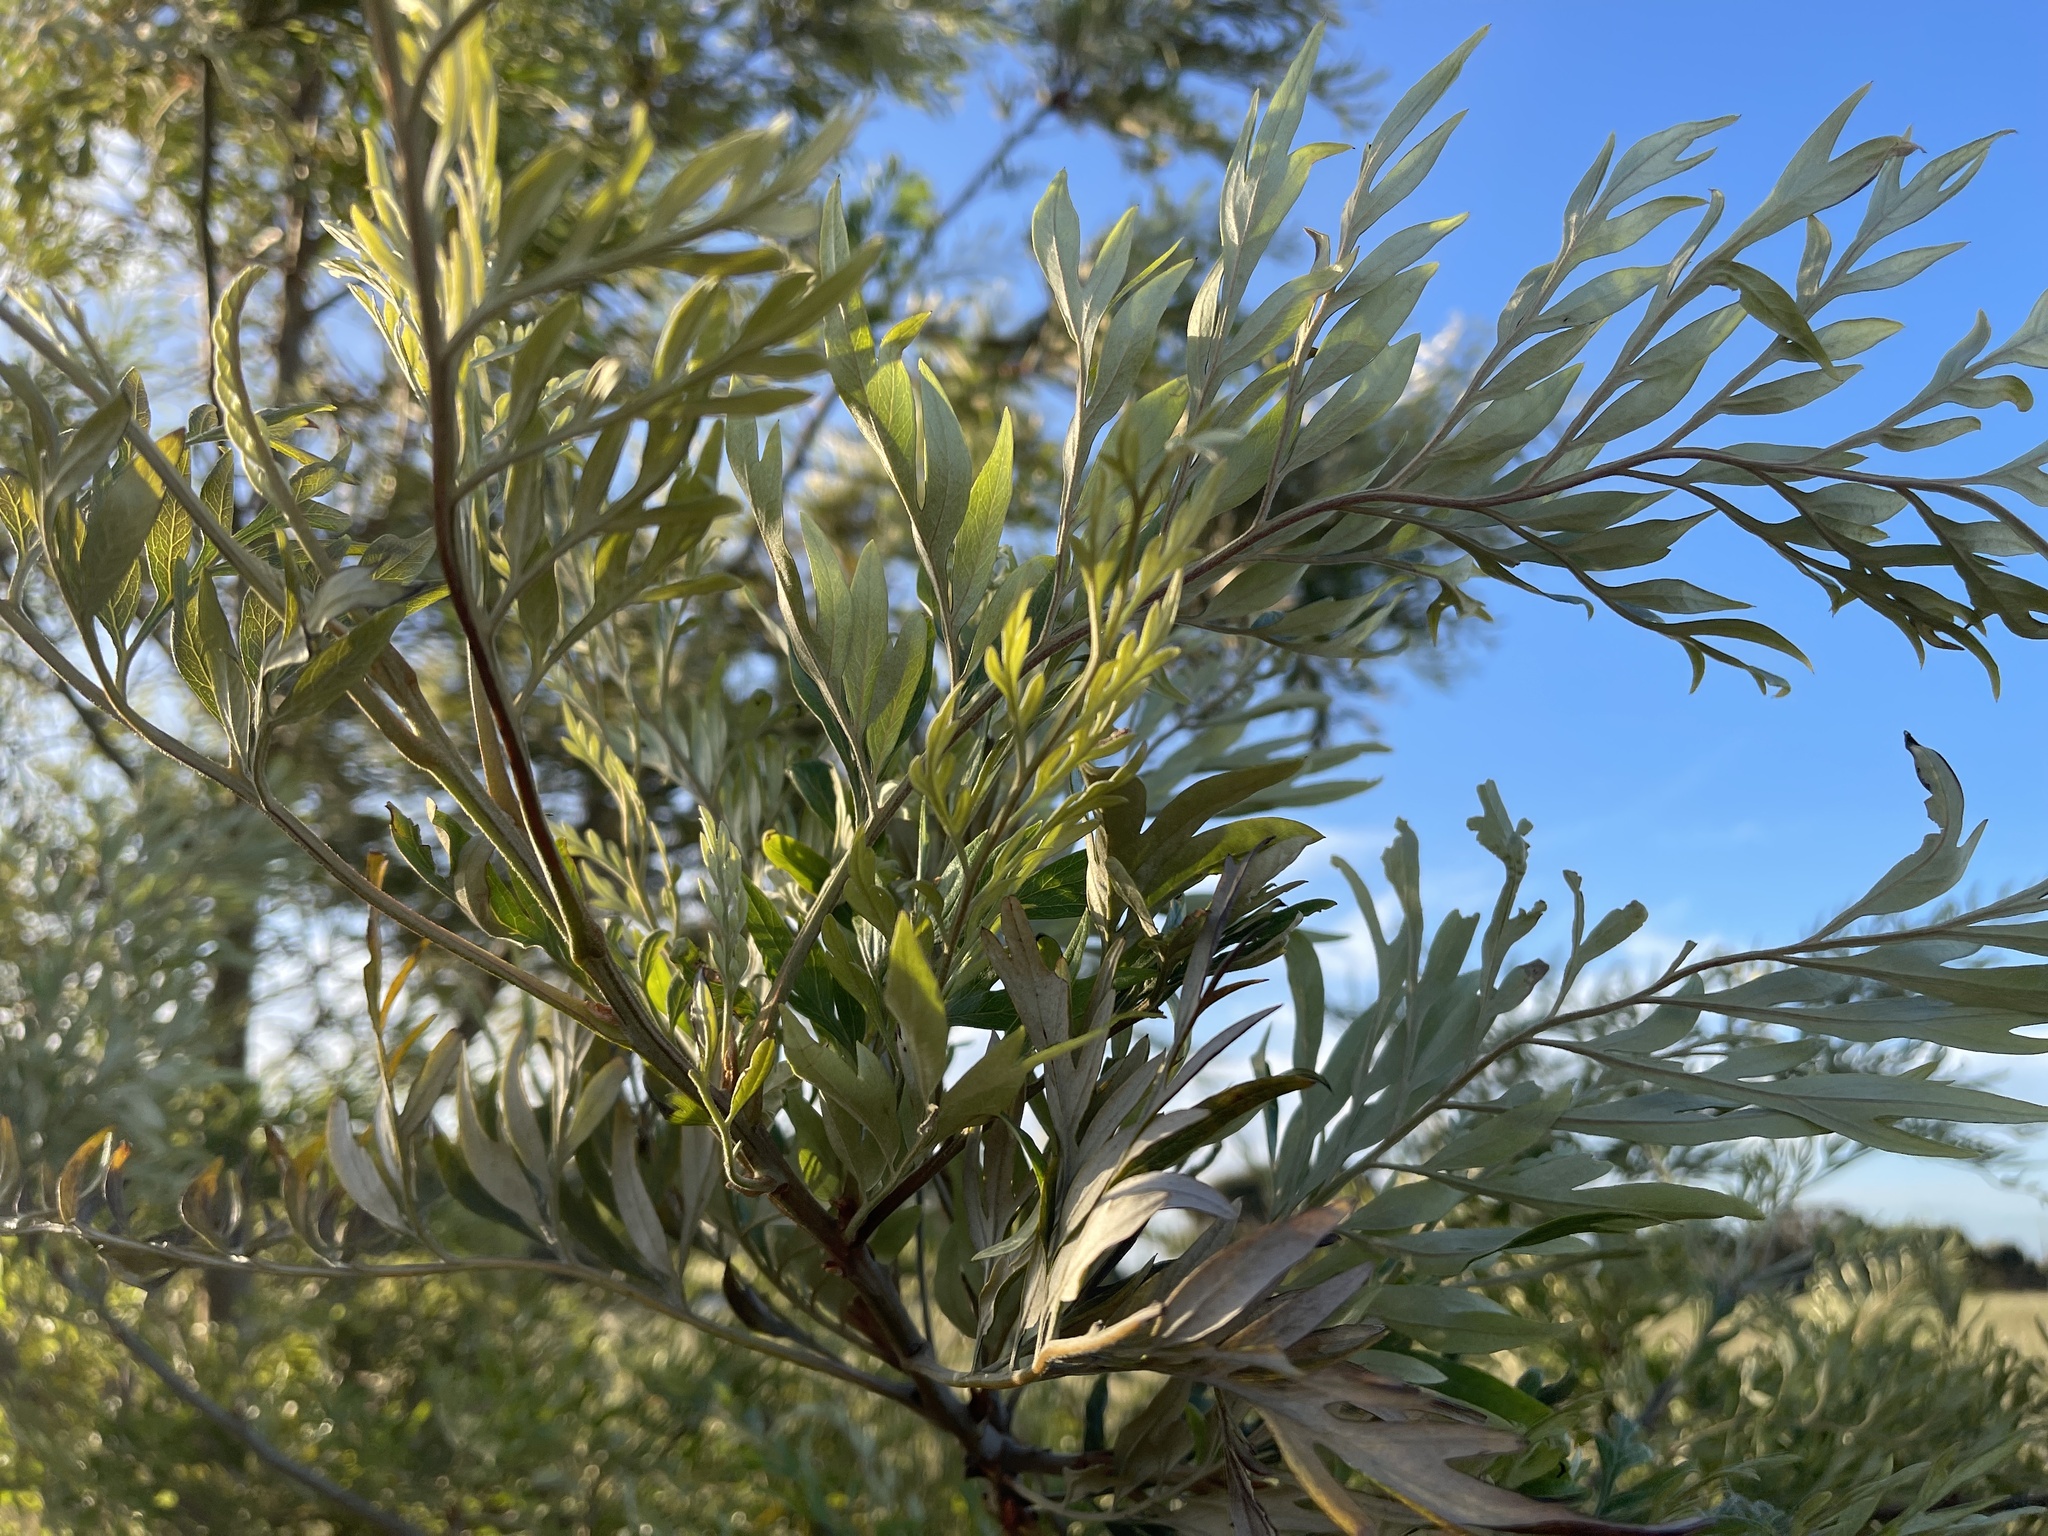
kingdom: Plantae
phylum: Tracheophyta
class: Magnoliopsida
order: Proteales
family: Proteaceae
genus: Grevillea
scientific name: Grevillea robusta
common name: Silkoak
